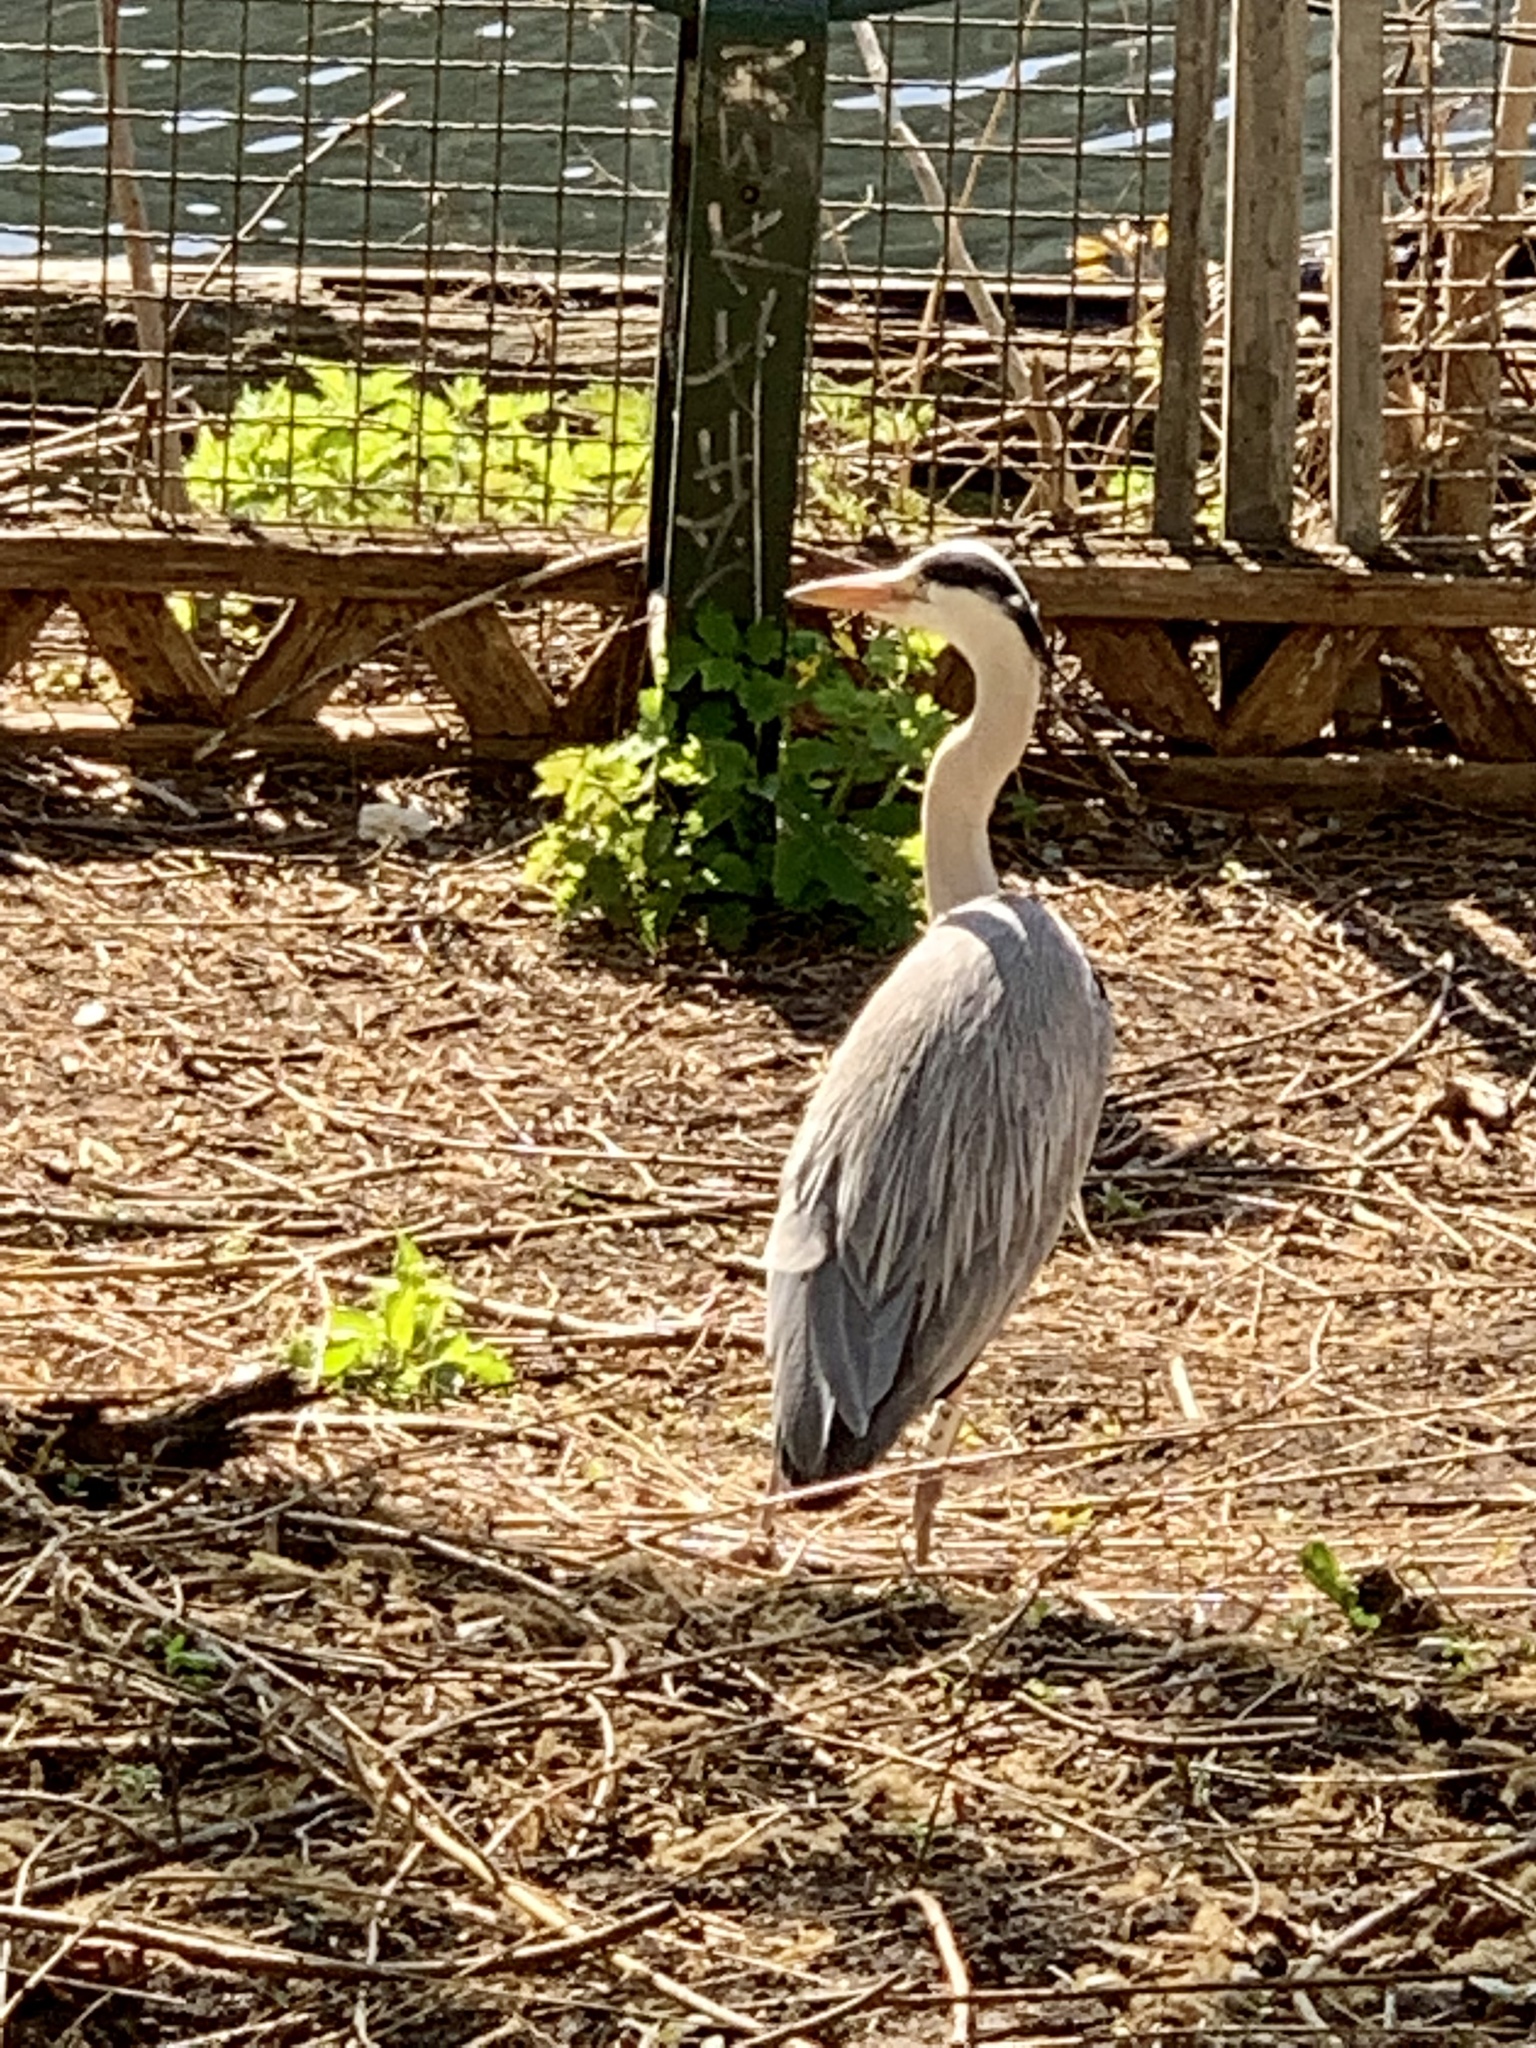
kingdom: Animalia
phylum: Chordata
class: Aves
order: Pelecaniformes
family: Ardeidae
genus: Ardea
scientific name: Ardea cinerea
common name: Grey heron
